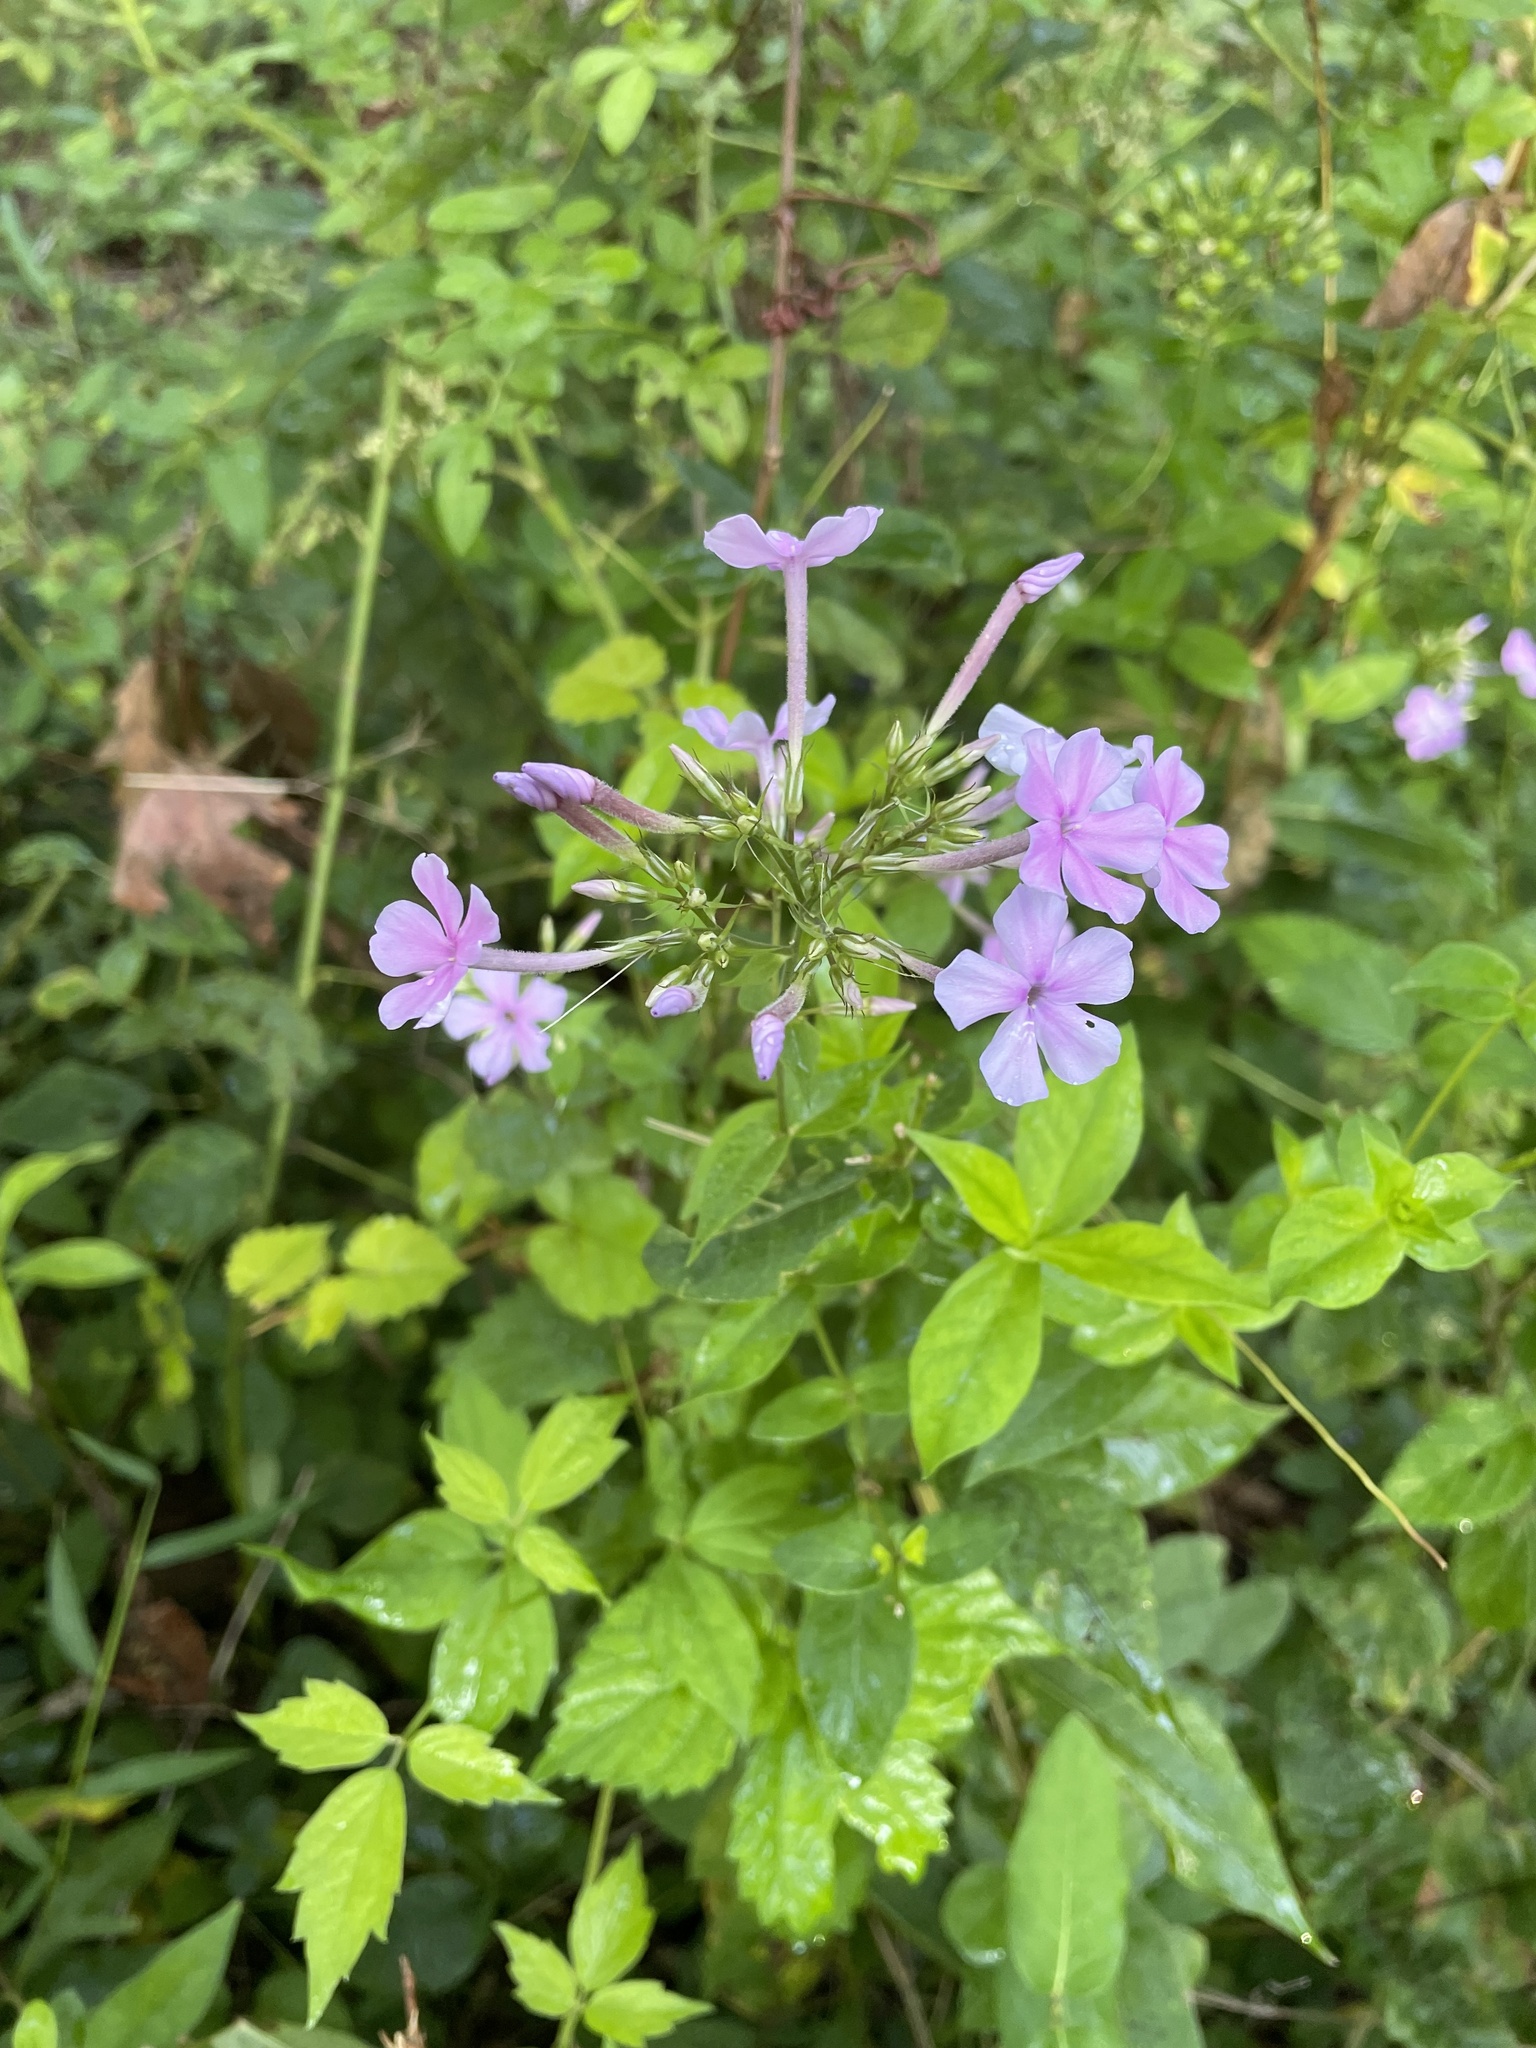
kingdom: Plantae
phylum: Tracheophyta
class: Magnoliopsida
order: Ericales
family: Polemoniaceae
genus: Phlox
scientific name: Phlox paniculata
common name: Fall phlox
